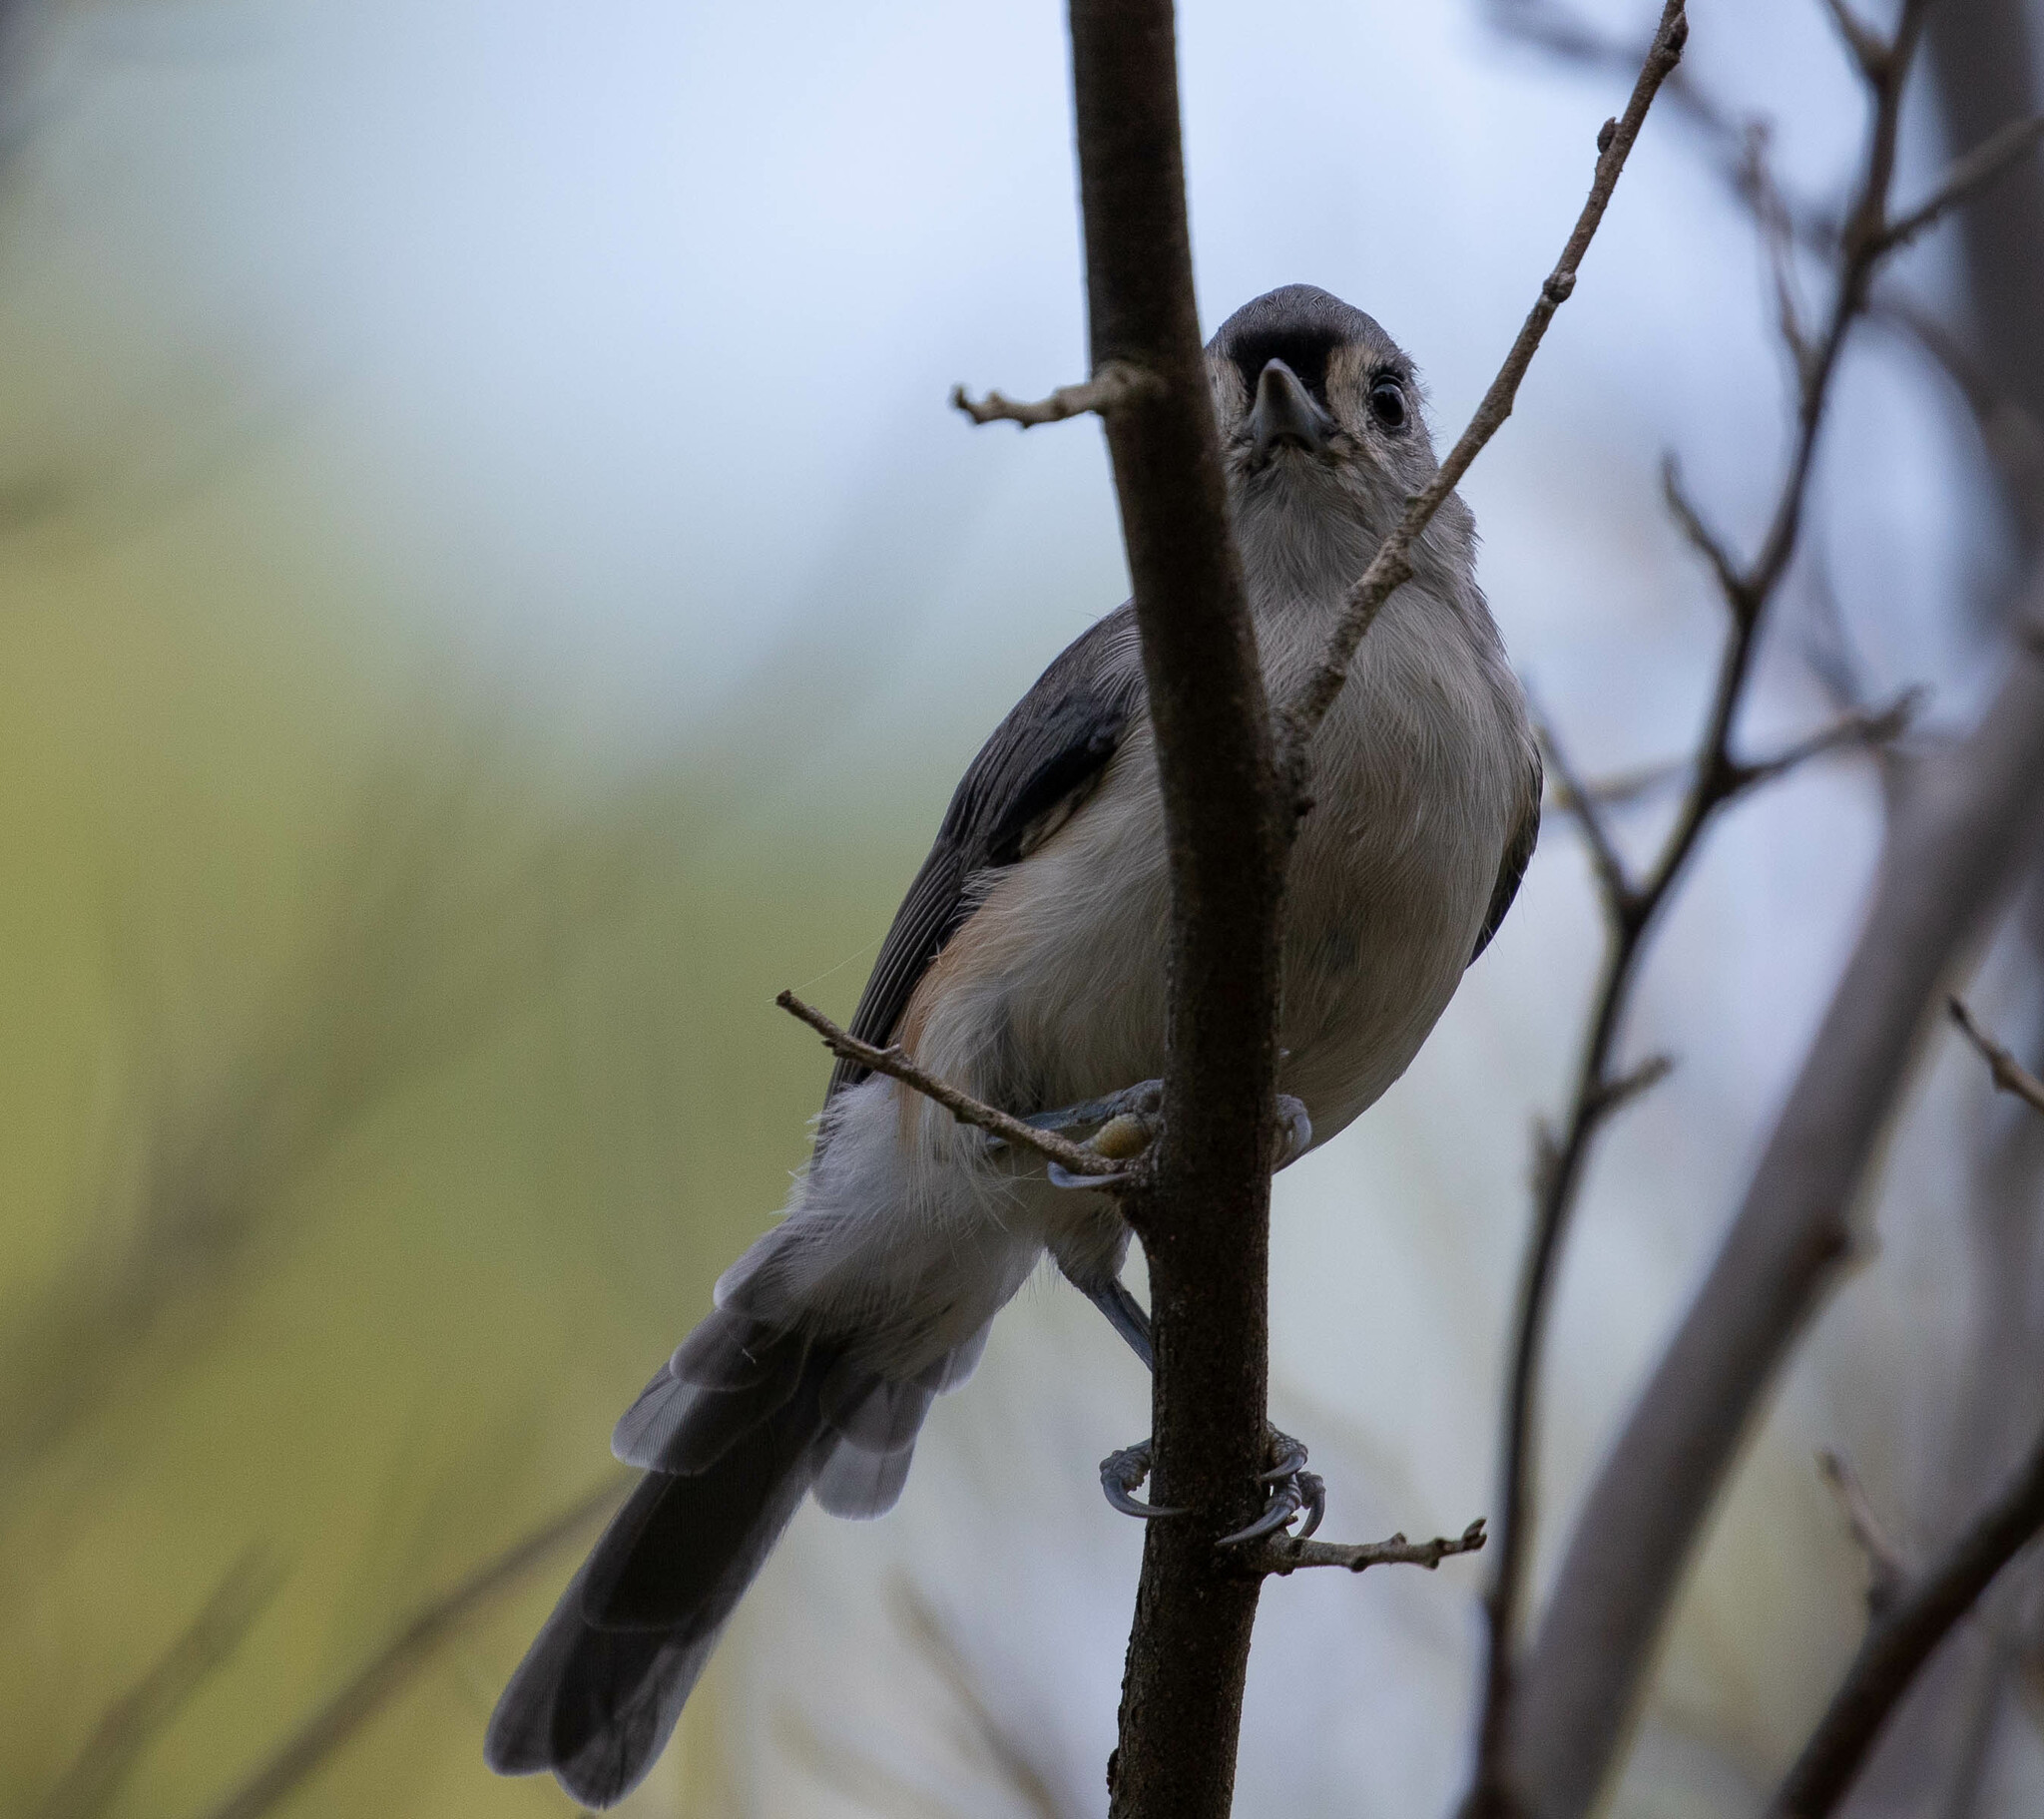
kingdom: Animalia
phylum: Chordata
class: Aves
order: Passeriformes
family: Paridae
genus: Baeolophus
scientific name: Baeolophus bicolor
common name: Tufted titmouse
